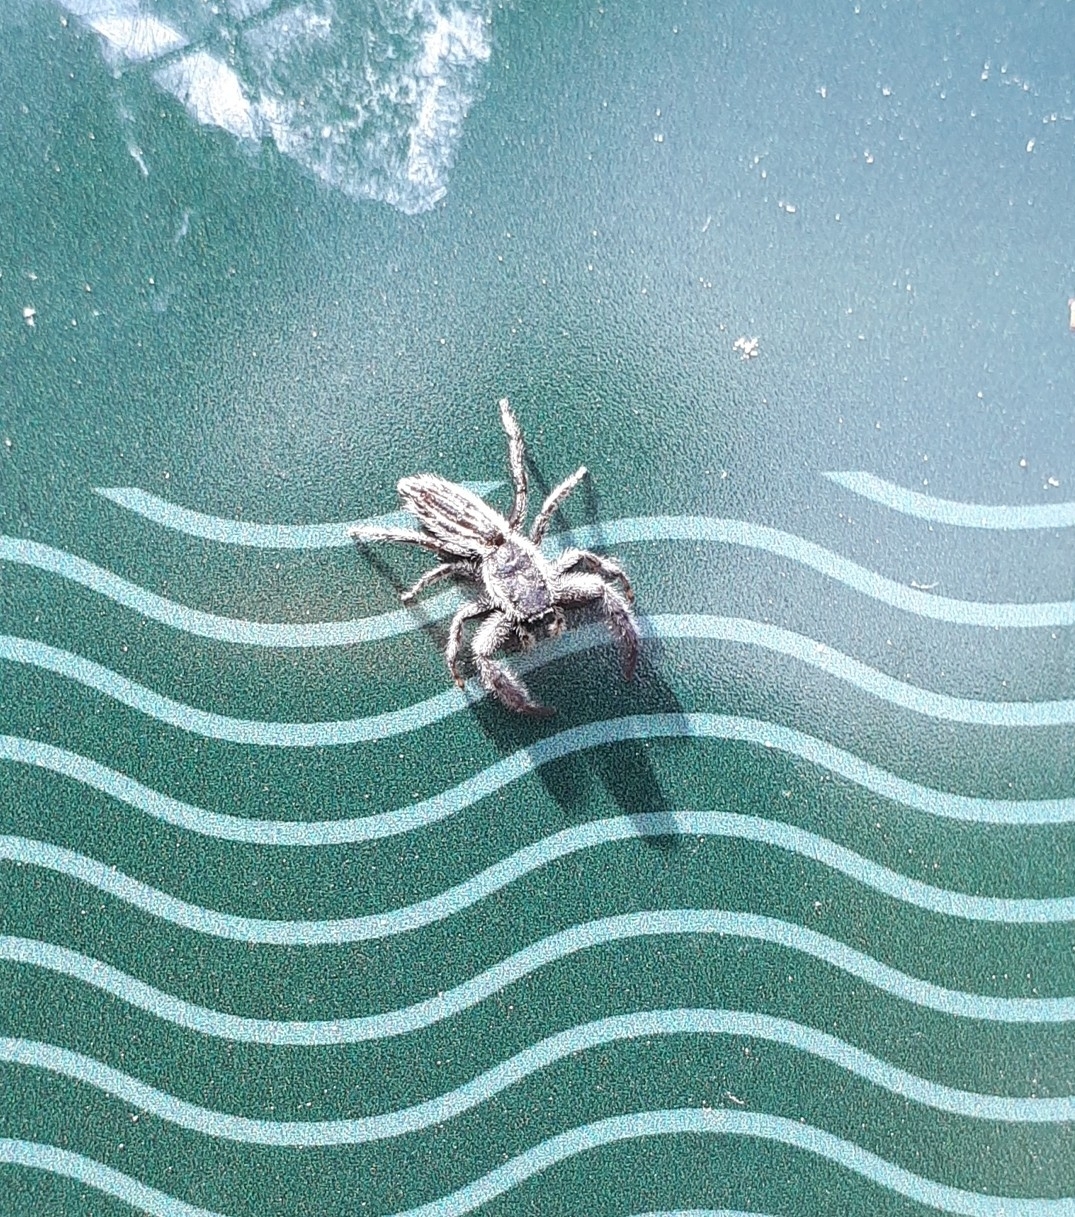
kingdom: Animalia
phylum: Arthropoda
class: Arachnida
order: Araneae
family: Salticidae
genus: Holoplatys
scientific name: Holoplatys apressus
